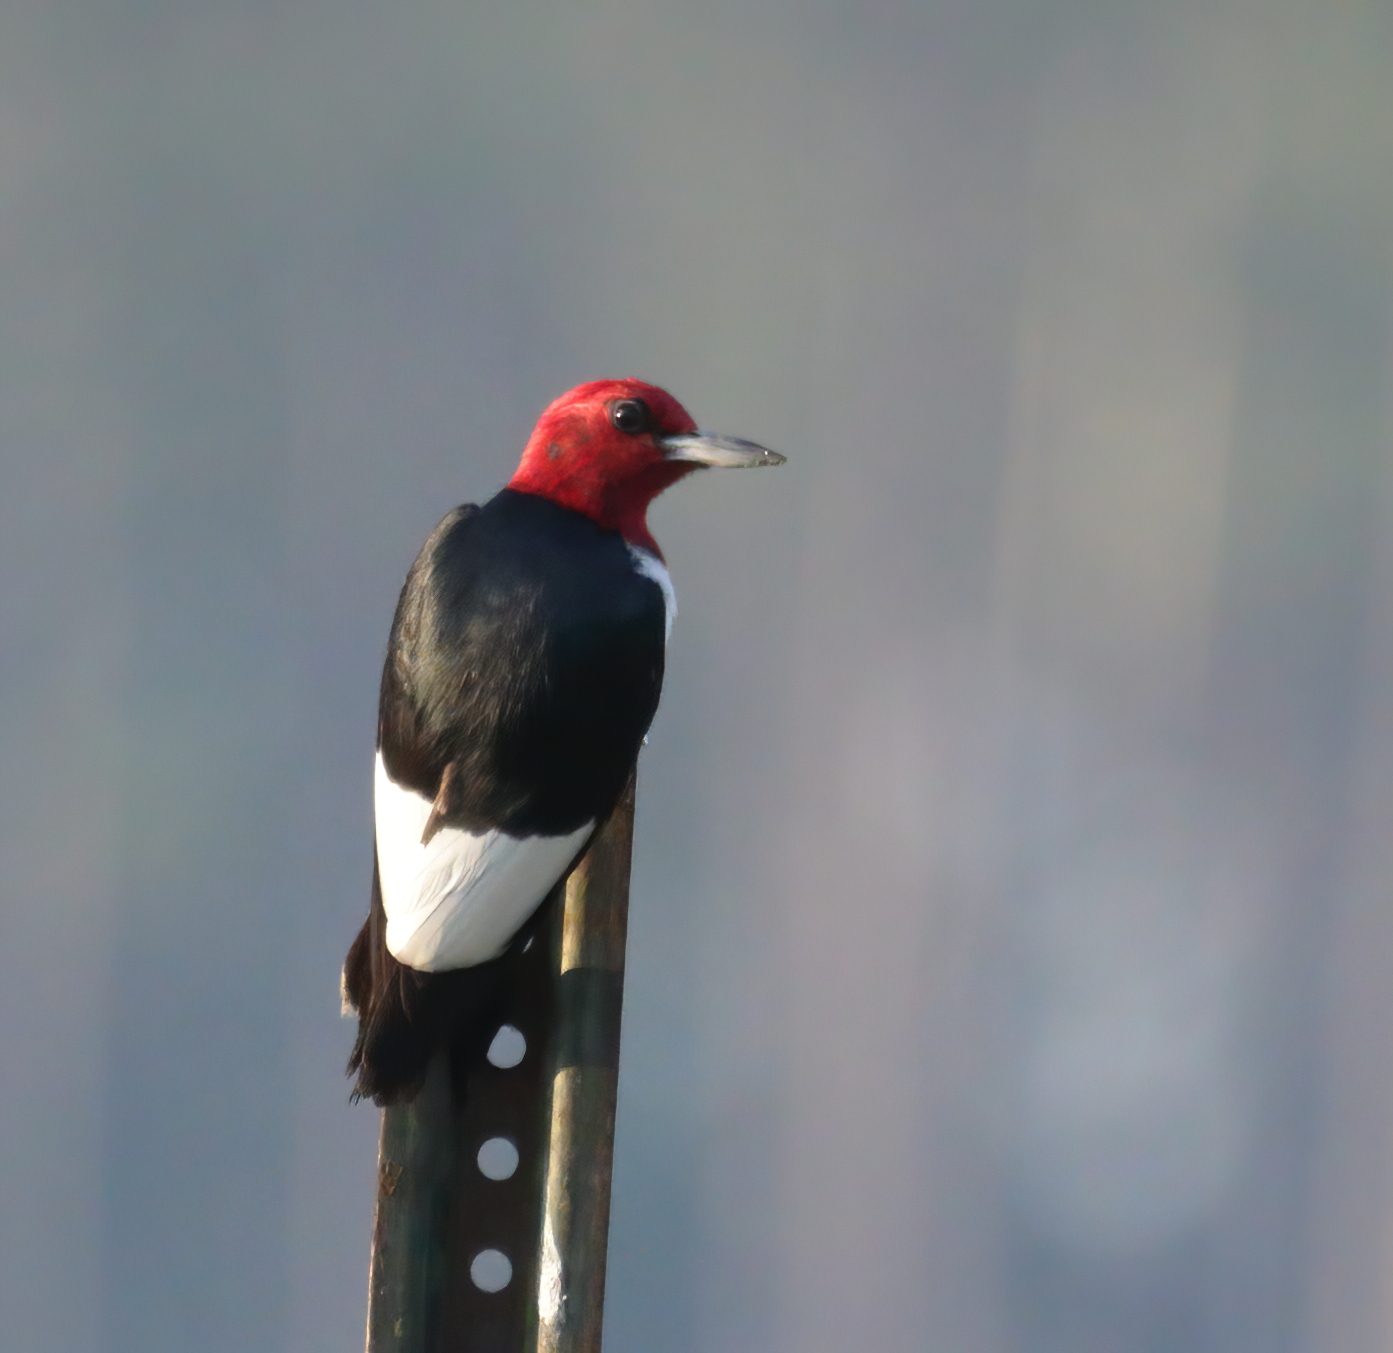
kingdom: Animalia
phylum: Chordata
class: Aves
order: Piciformes
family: Picidae
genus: Melanerpes
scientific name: Melanerpes erythrocephalus
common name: Red-headed woodpecker
